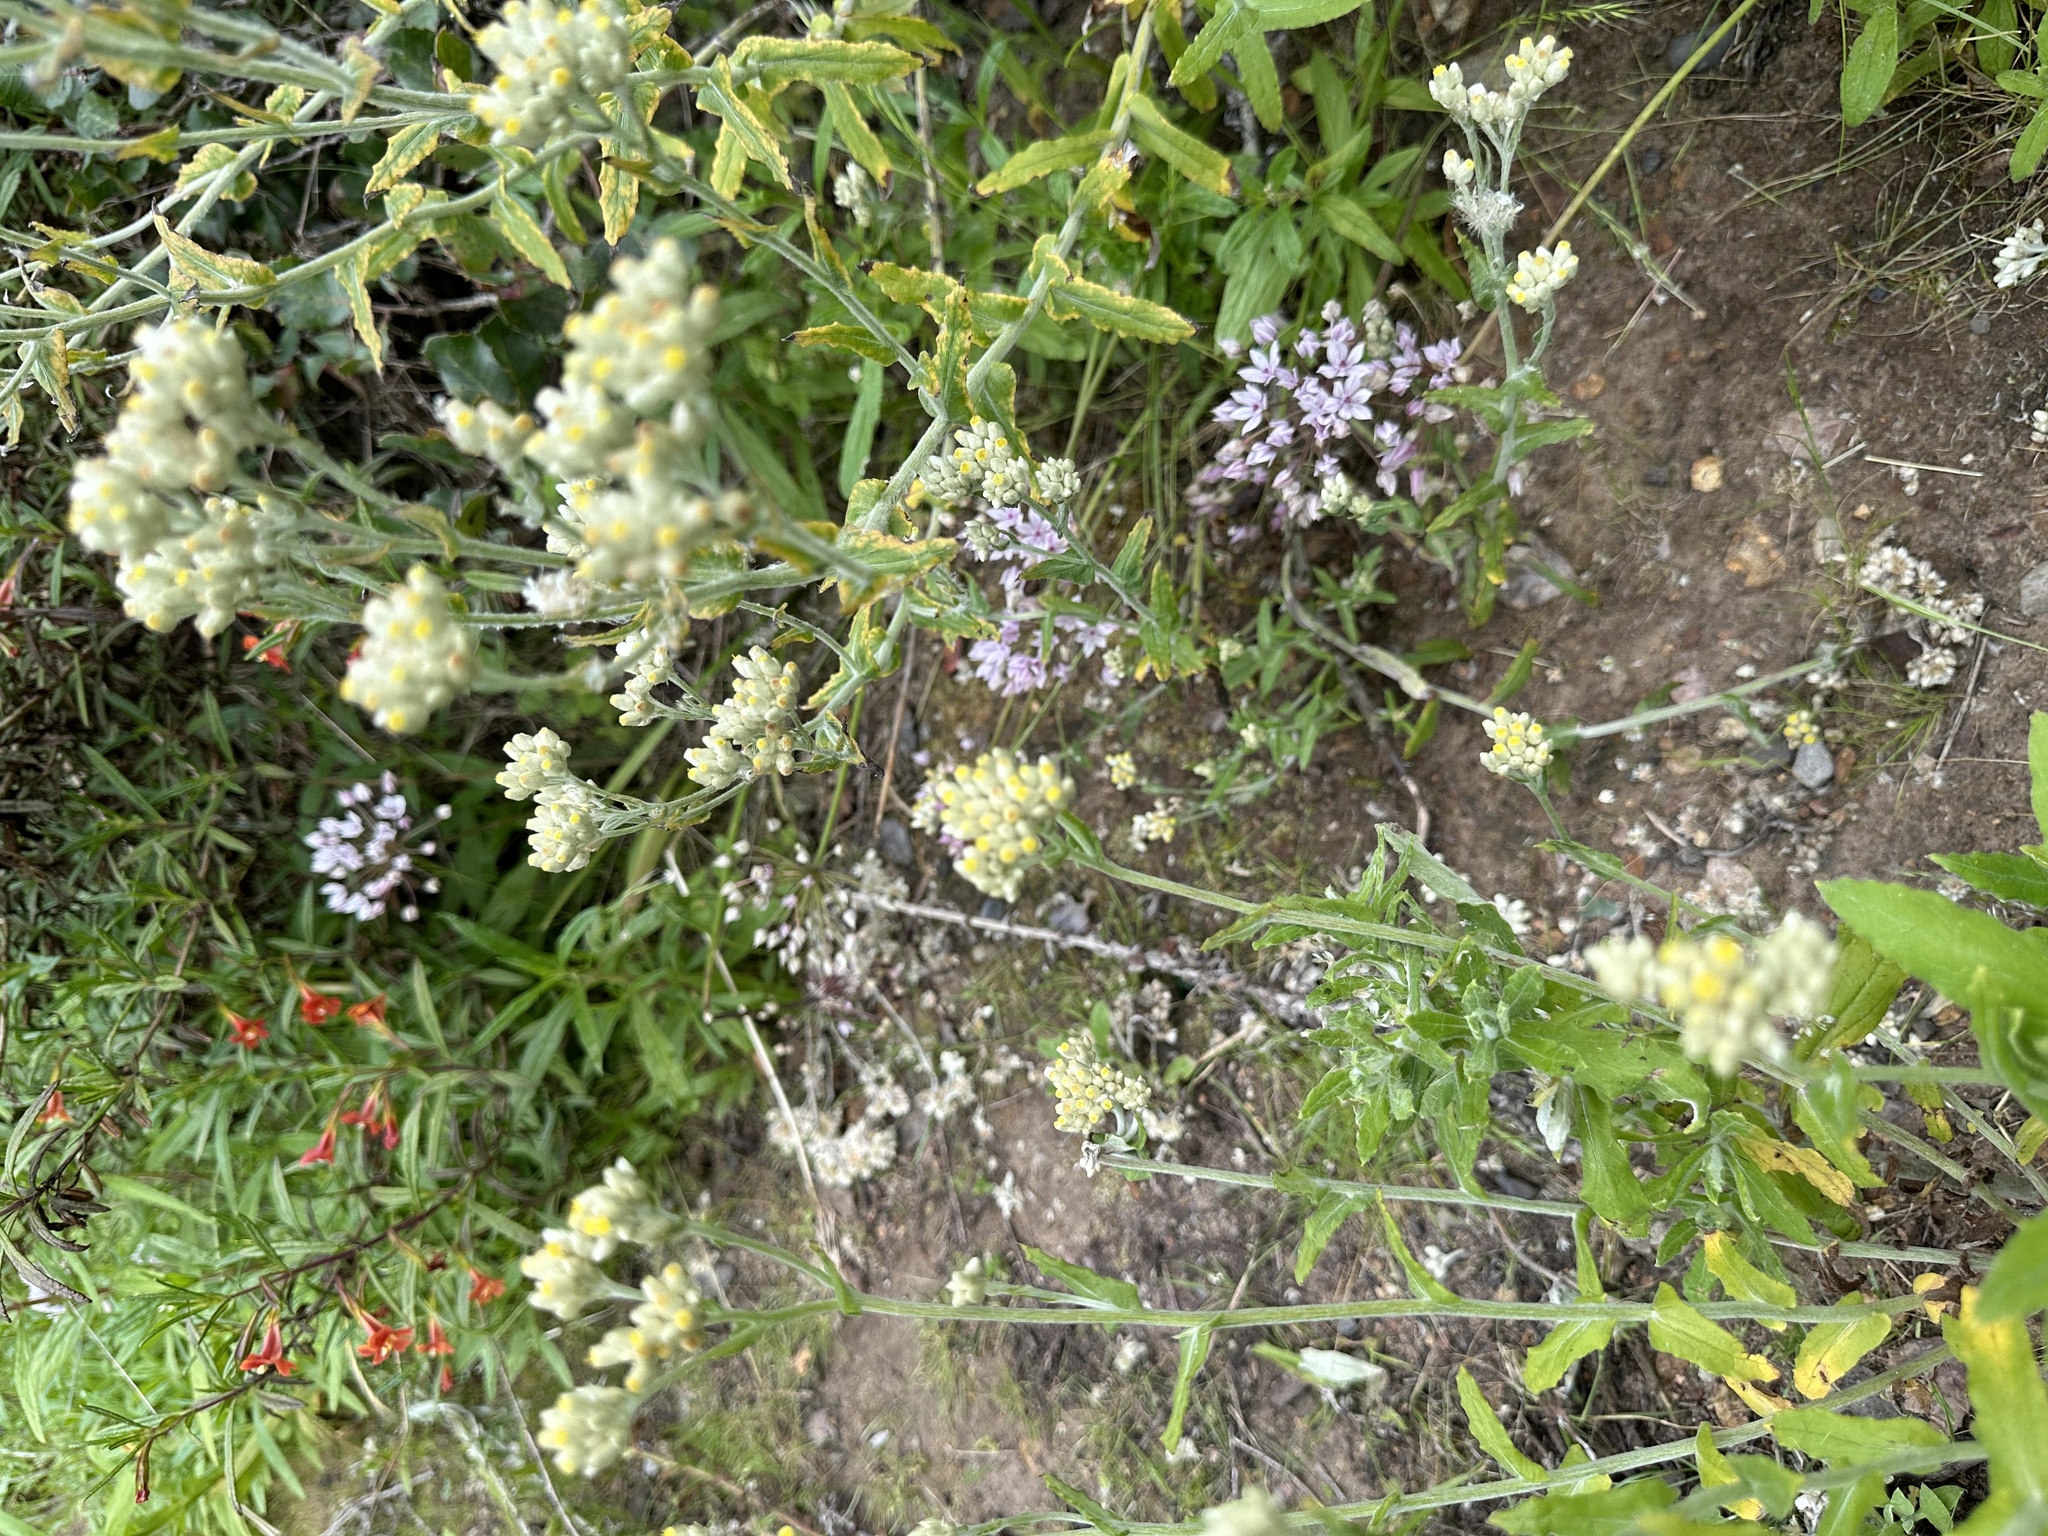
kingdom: Plantae
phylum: Tracheophyta
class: Liliopsida
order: Asparagales
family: Amaryllidaceae
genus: Allium
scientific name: Allium praecox
